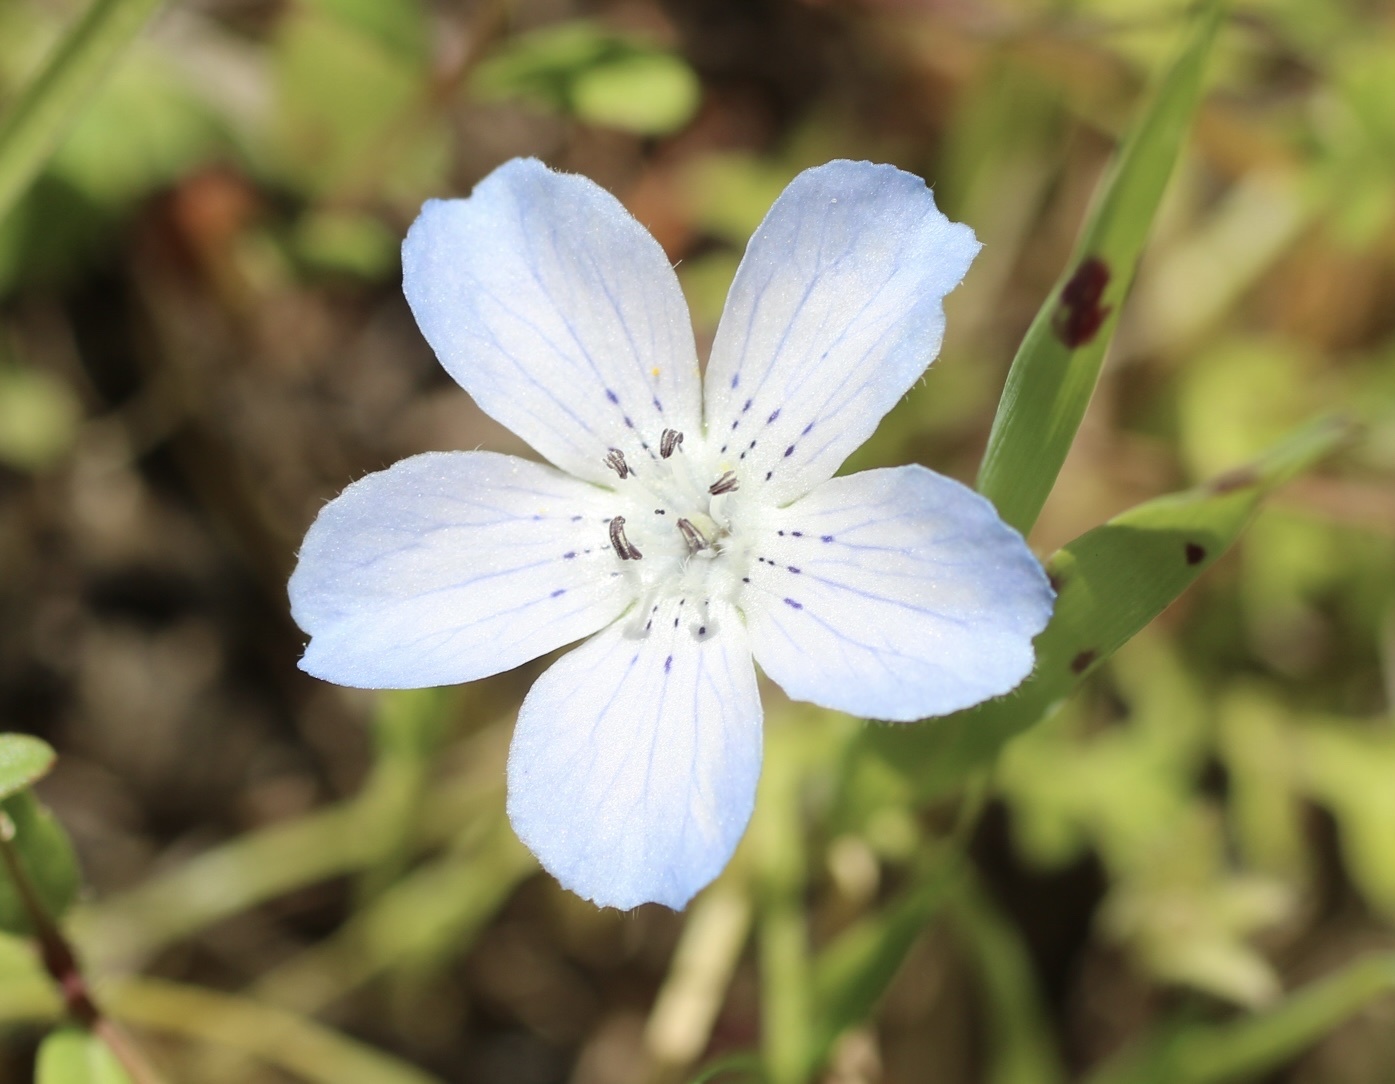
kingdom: Plantae
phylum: Tracheophyta
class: Magnoliopsida
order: Boraginales
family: Hydrophyllaceae
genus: Nemophila
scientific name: Nemophila menziesii
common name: Baby's-blue-eyes
